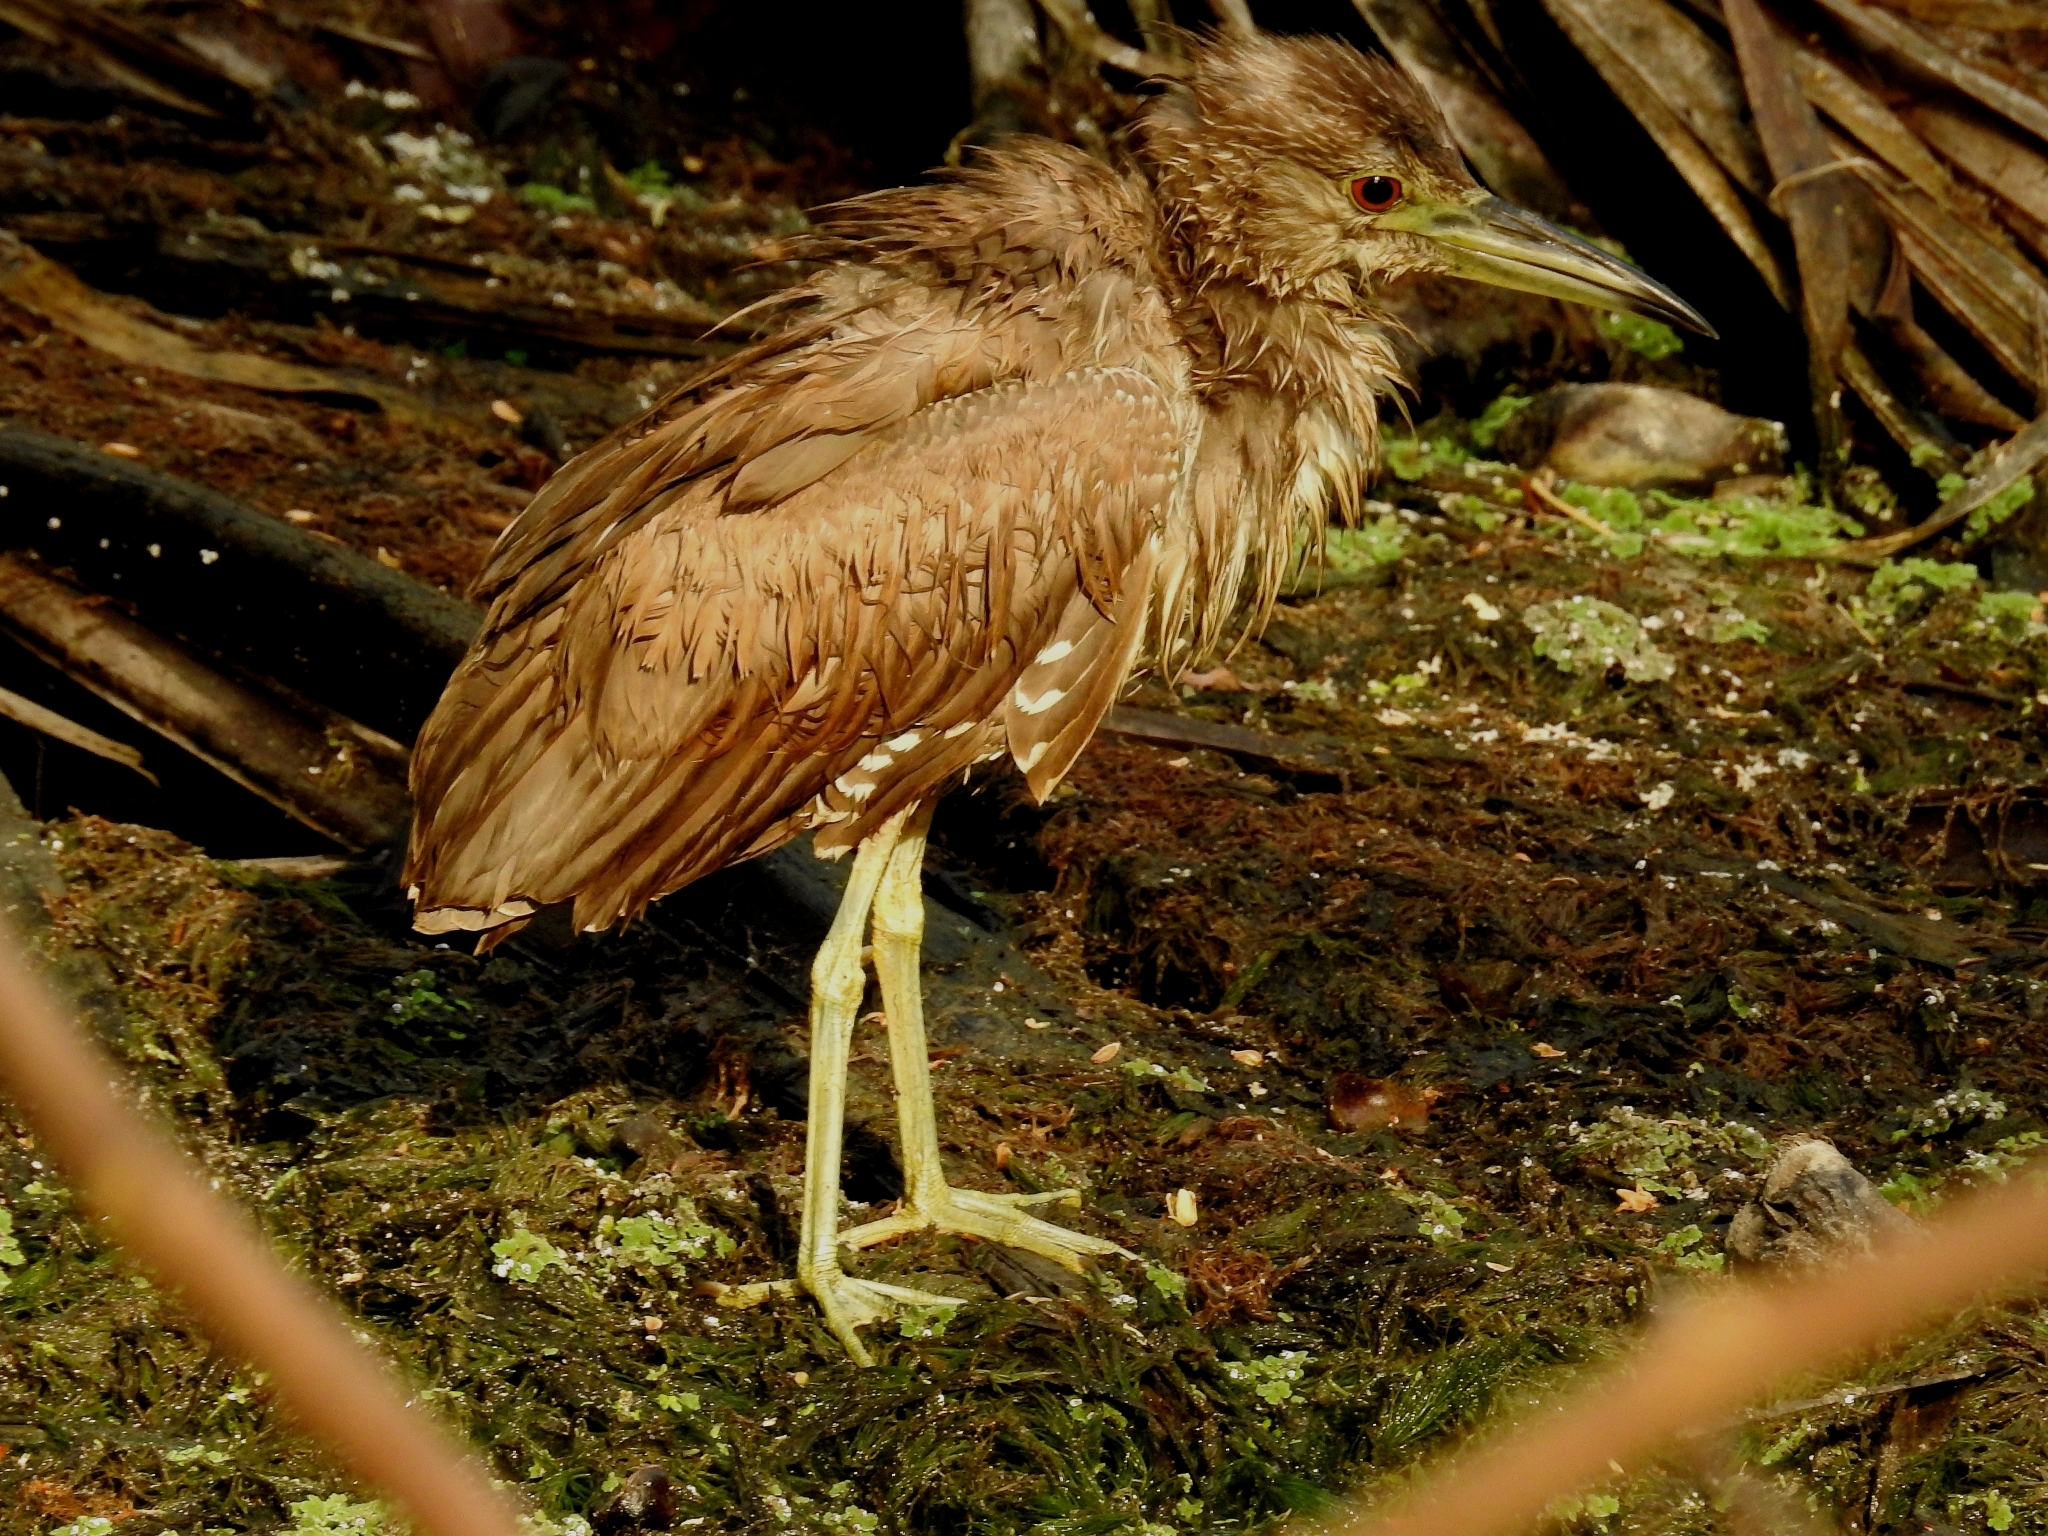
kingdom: Animalia
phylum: Chordata
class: Aves
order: Pelecaniformes
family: Ardeidae
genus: Nycticorax
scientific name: Nycticorax nycticorax
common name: Black-crowned night heron
